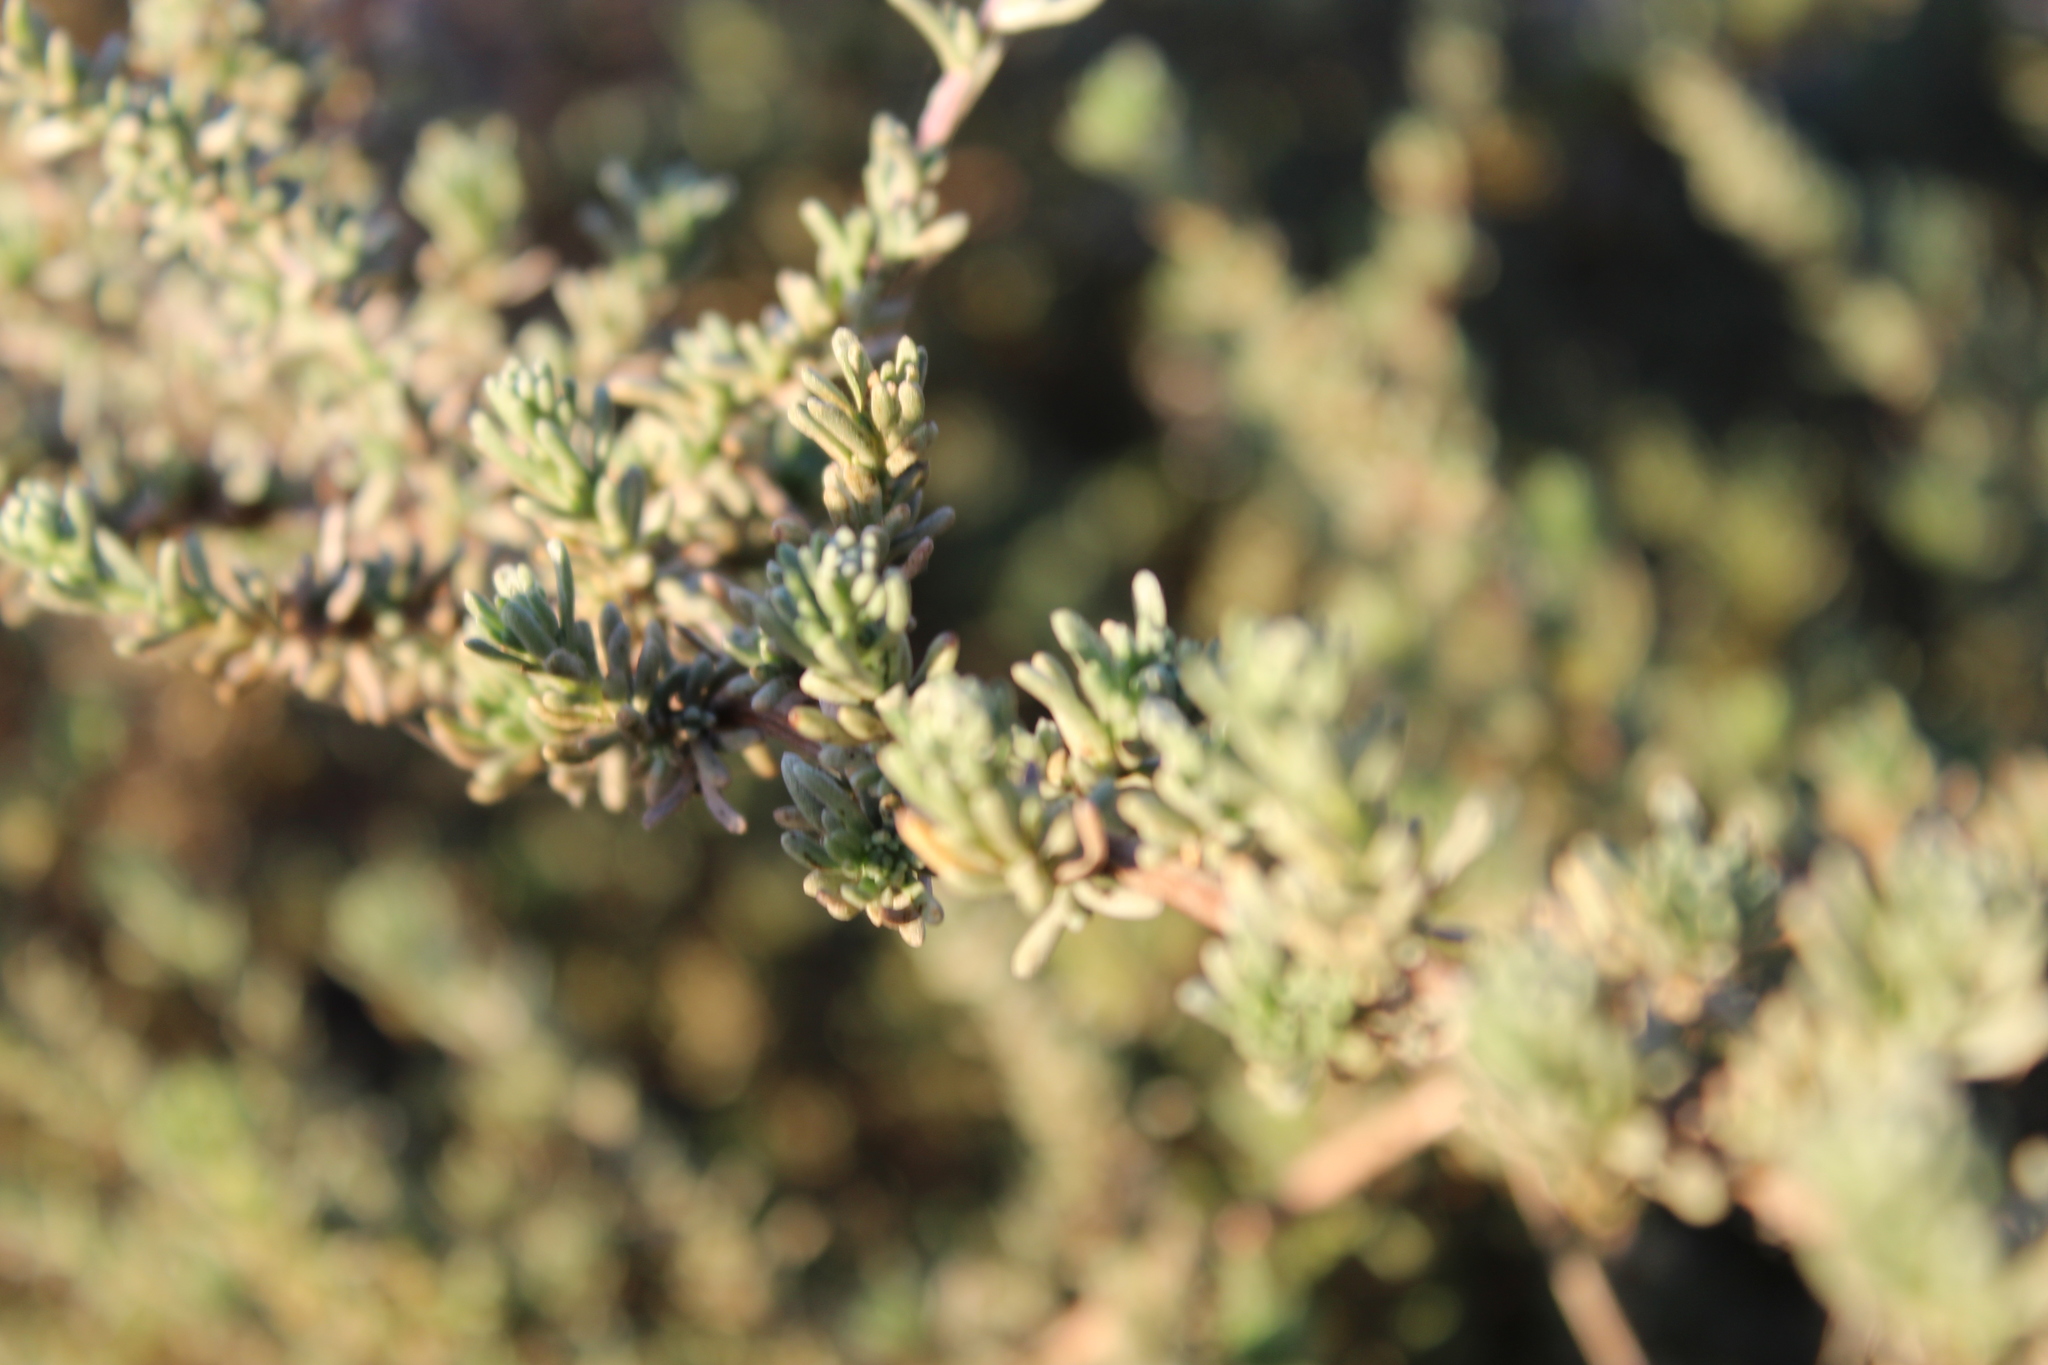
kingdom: Plantae
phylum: Tracheophyta
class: Magnoliopsida
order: Asterales
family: Asteraceae
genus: Eriocephalus
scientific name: Eriocephalus africanus
